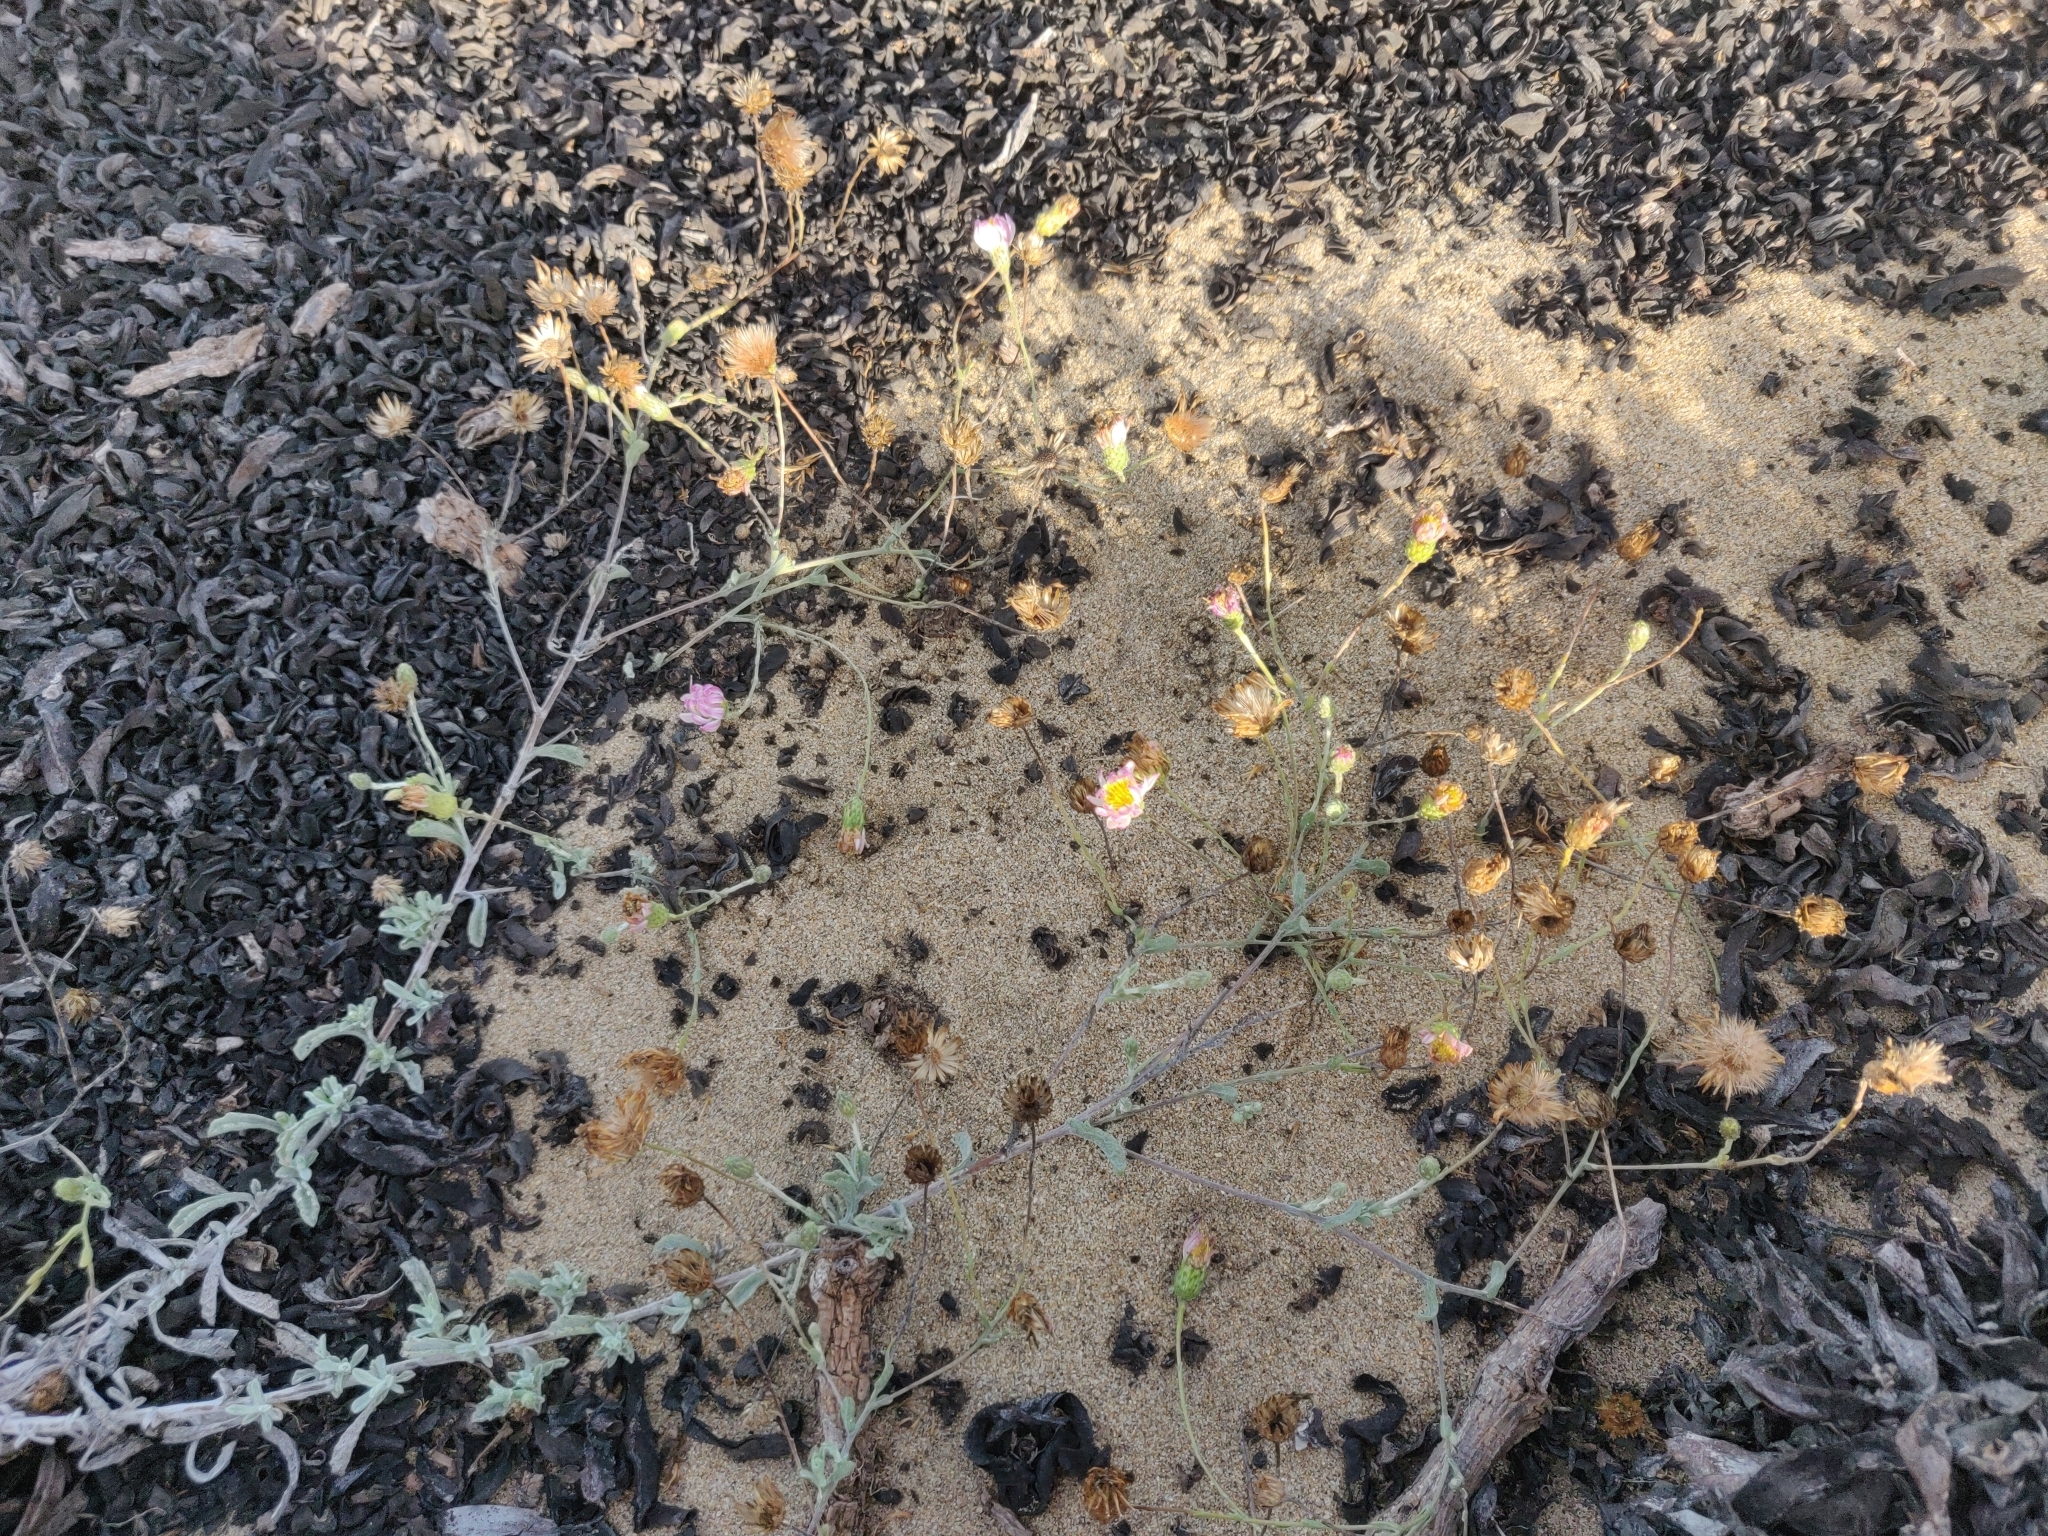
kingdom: Plantae
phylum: Tracheophyta
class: Magnoliopsida
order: Asterales
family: Asteraceae
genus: Corethrogyne
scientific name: Corethrogyne filaginifolia
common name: Sand-aster
